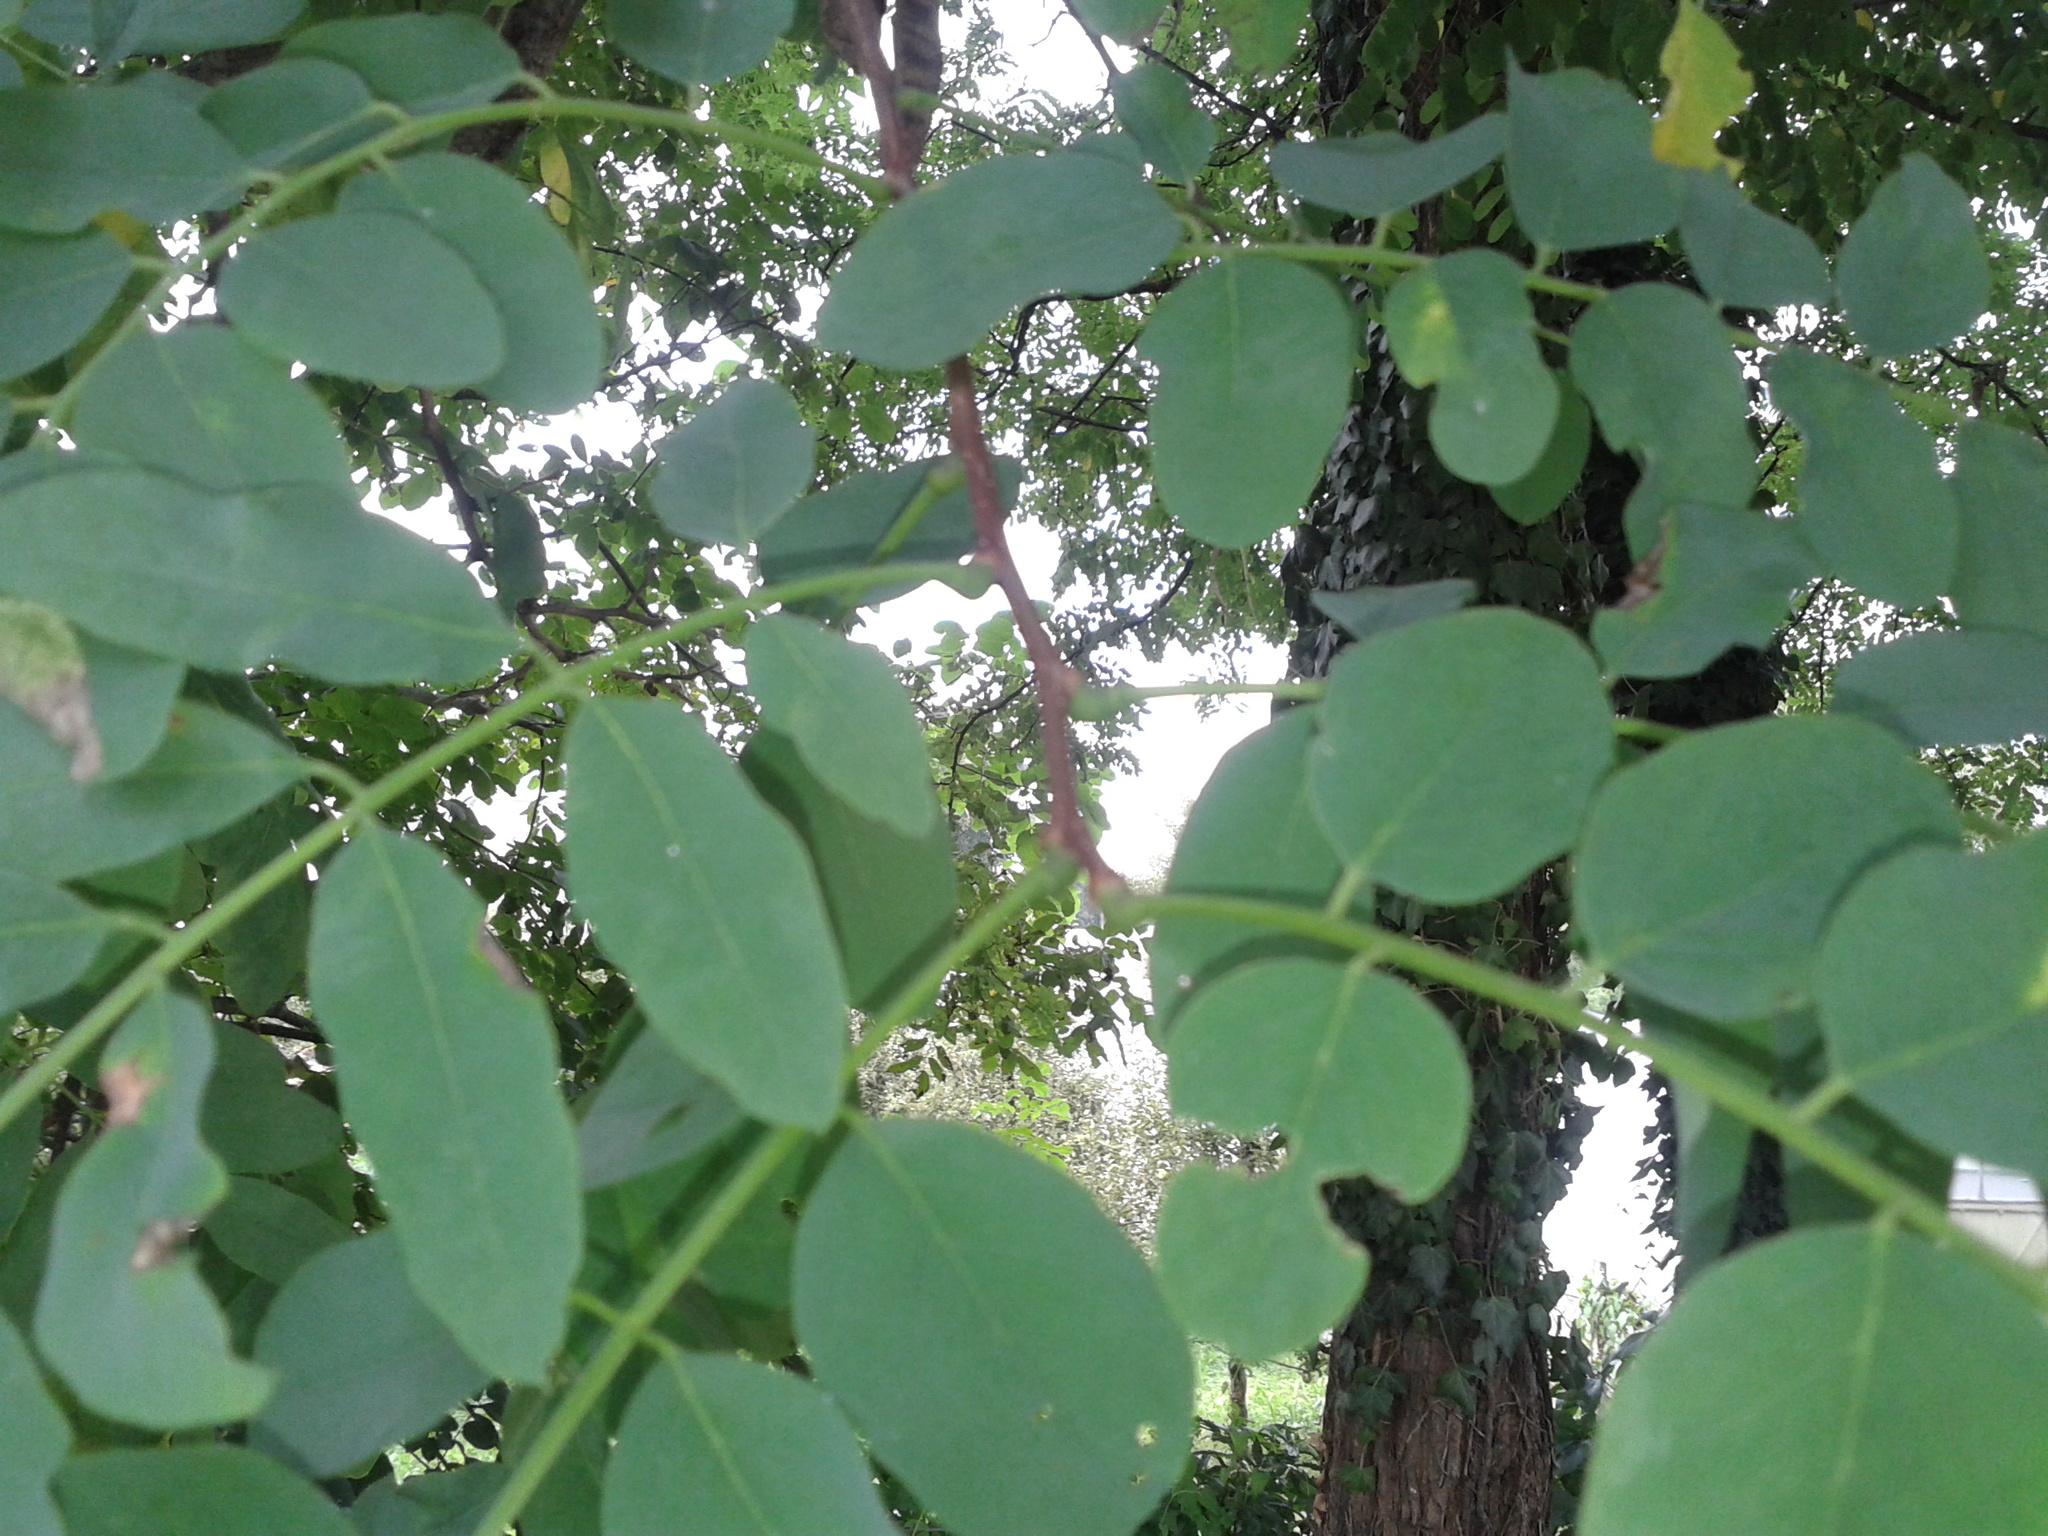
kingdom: Plantae
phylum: Tracheophyta
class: Magnoliopsida
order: Fabales
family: Fabaceae
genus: Robinia
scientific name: Robinia pseudoacacia
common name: Black locust
